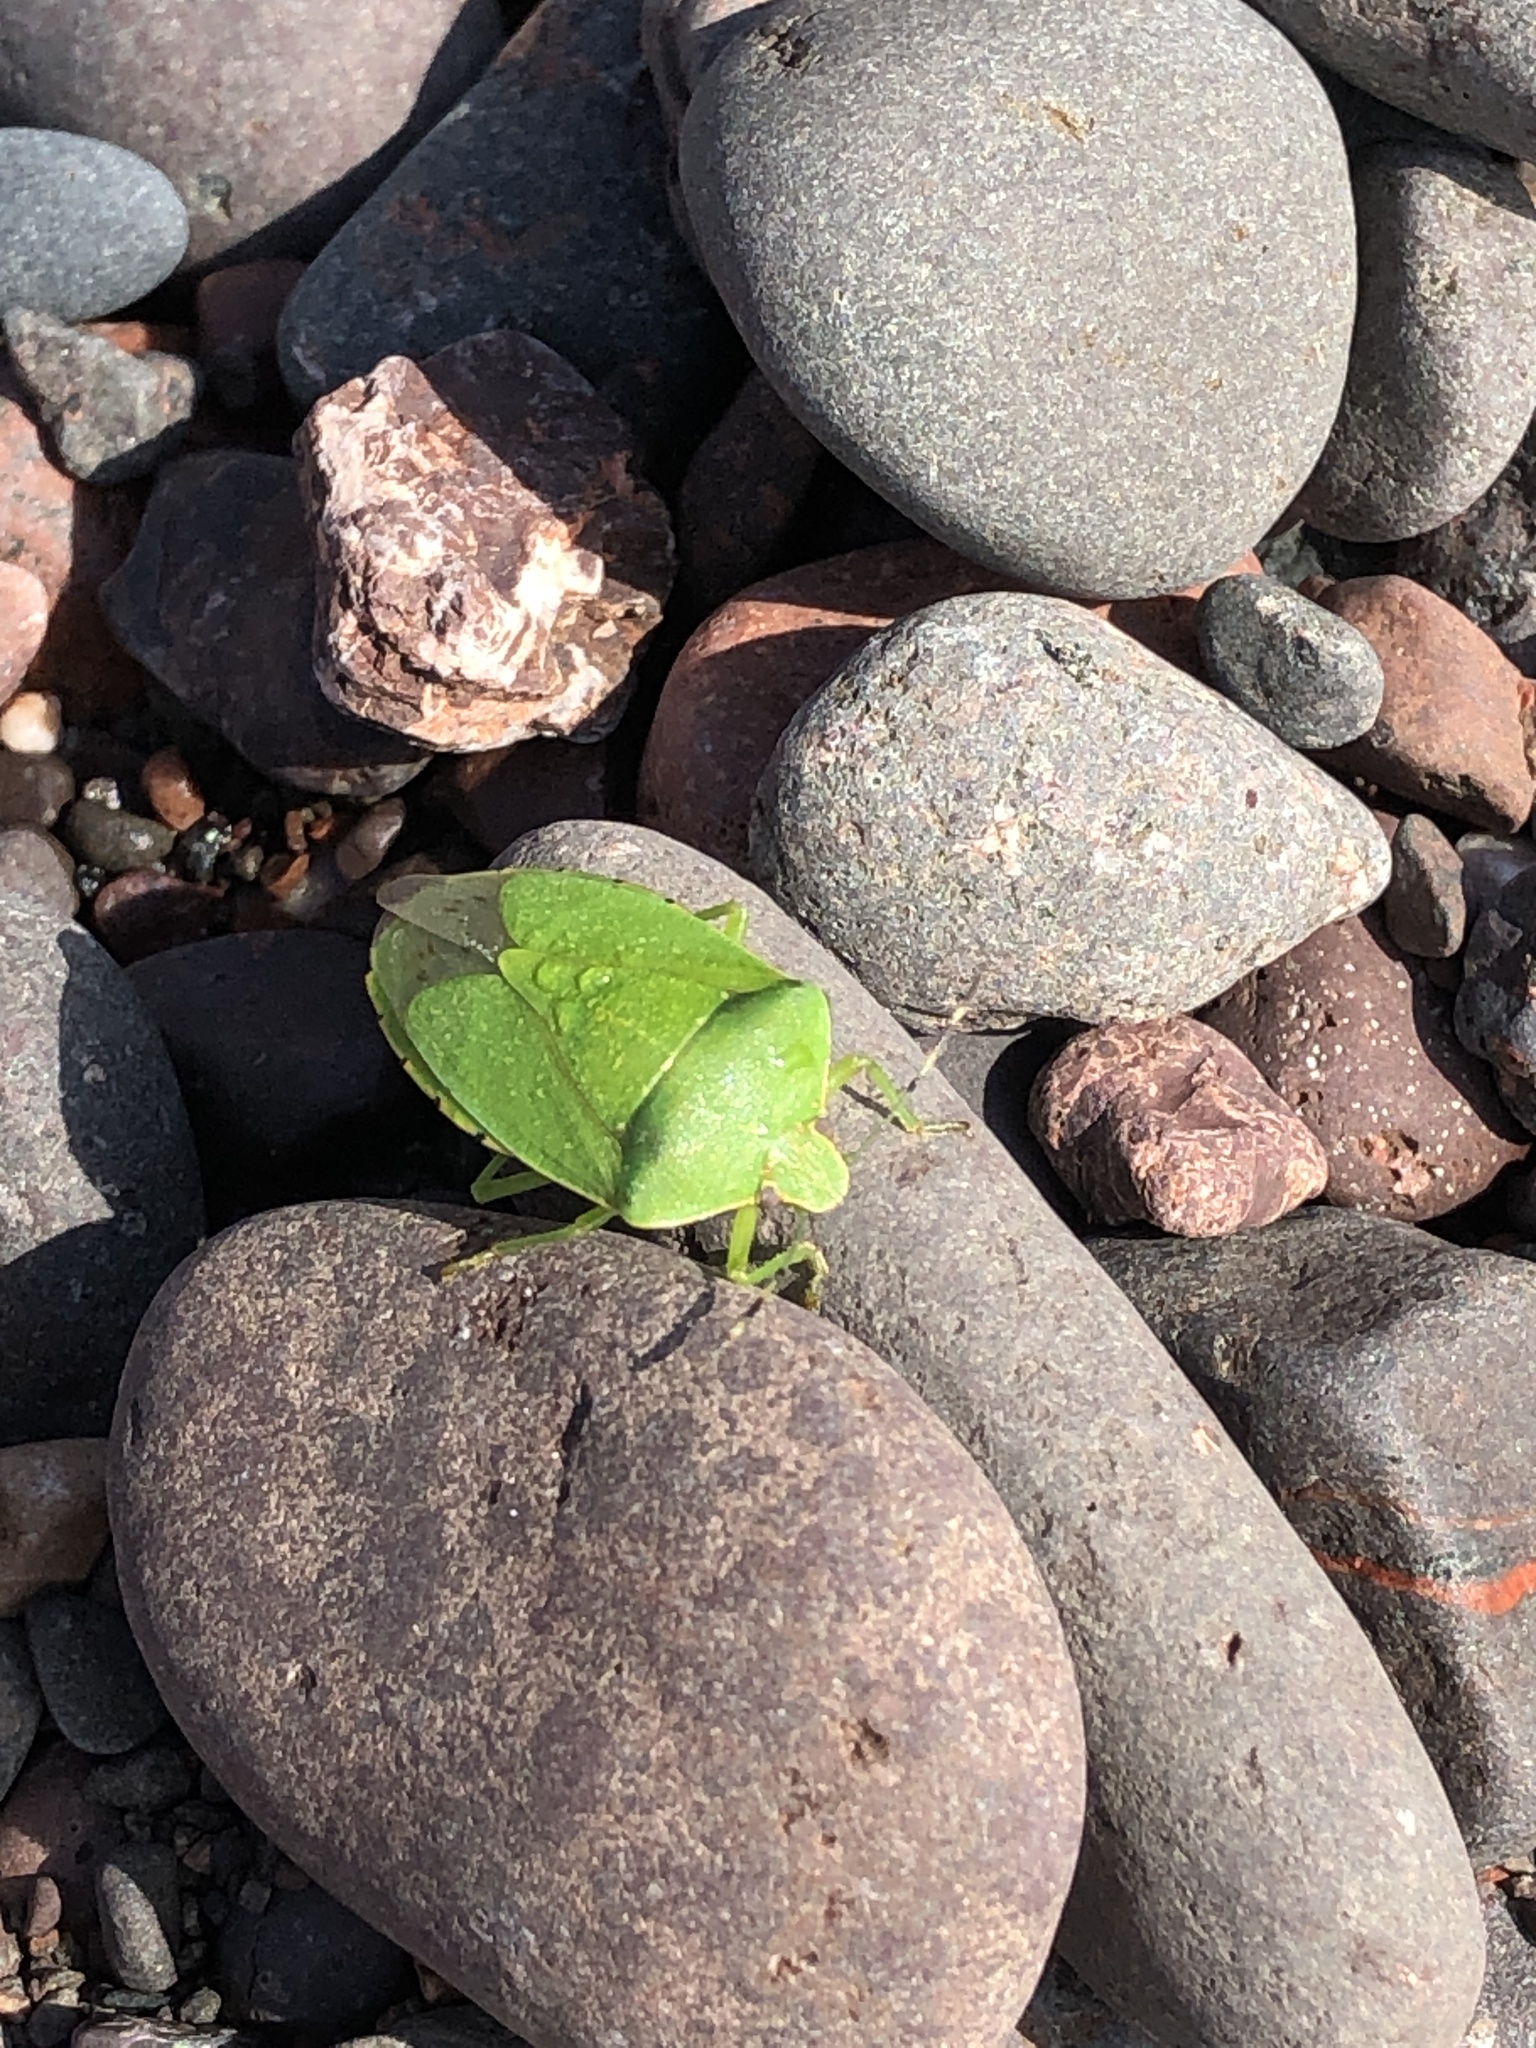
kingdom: Animalia
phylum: Arthropoda
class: Insecta
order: Hemiptera
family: Pentatomidae
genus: Chinavia
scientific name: Chinavia hilaris
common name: Green stink bug
